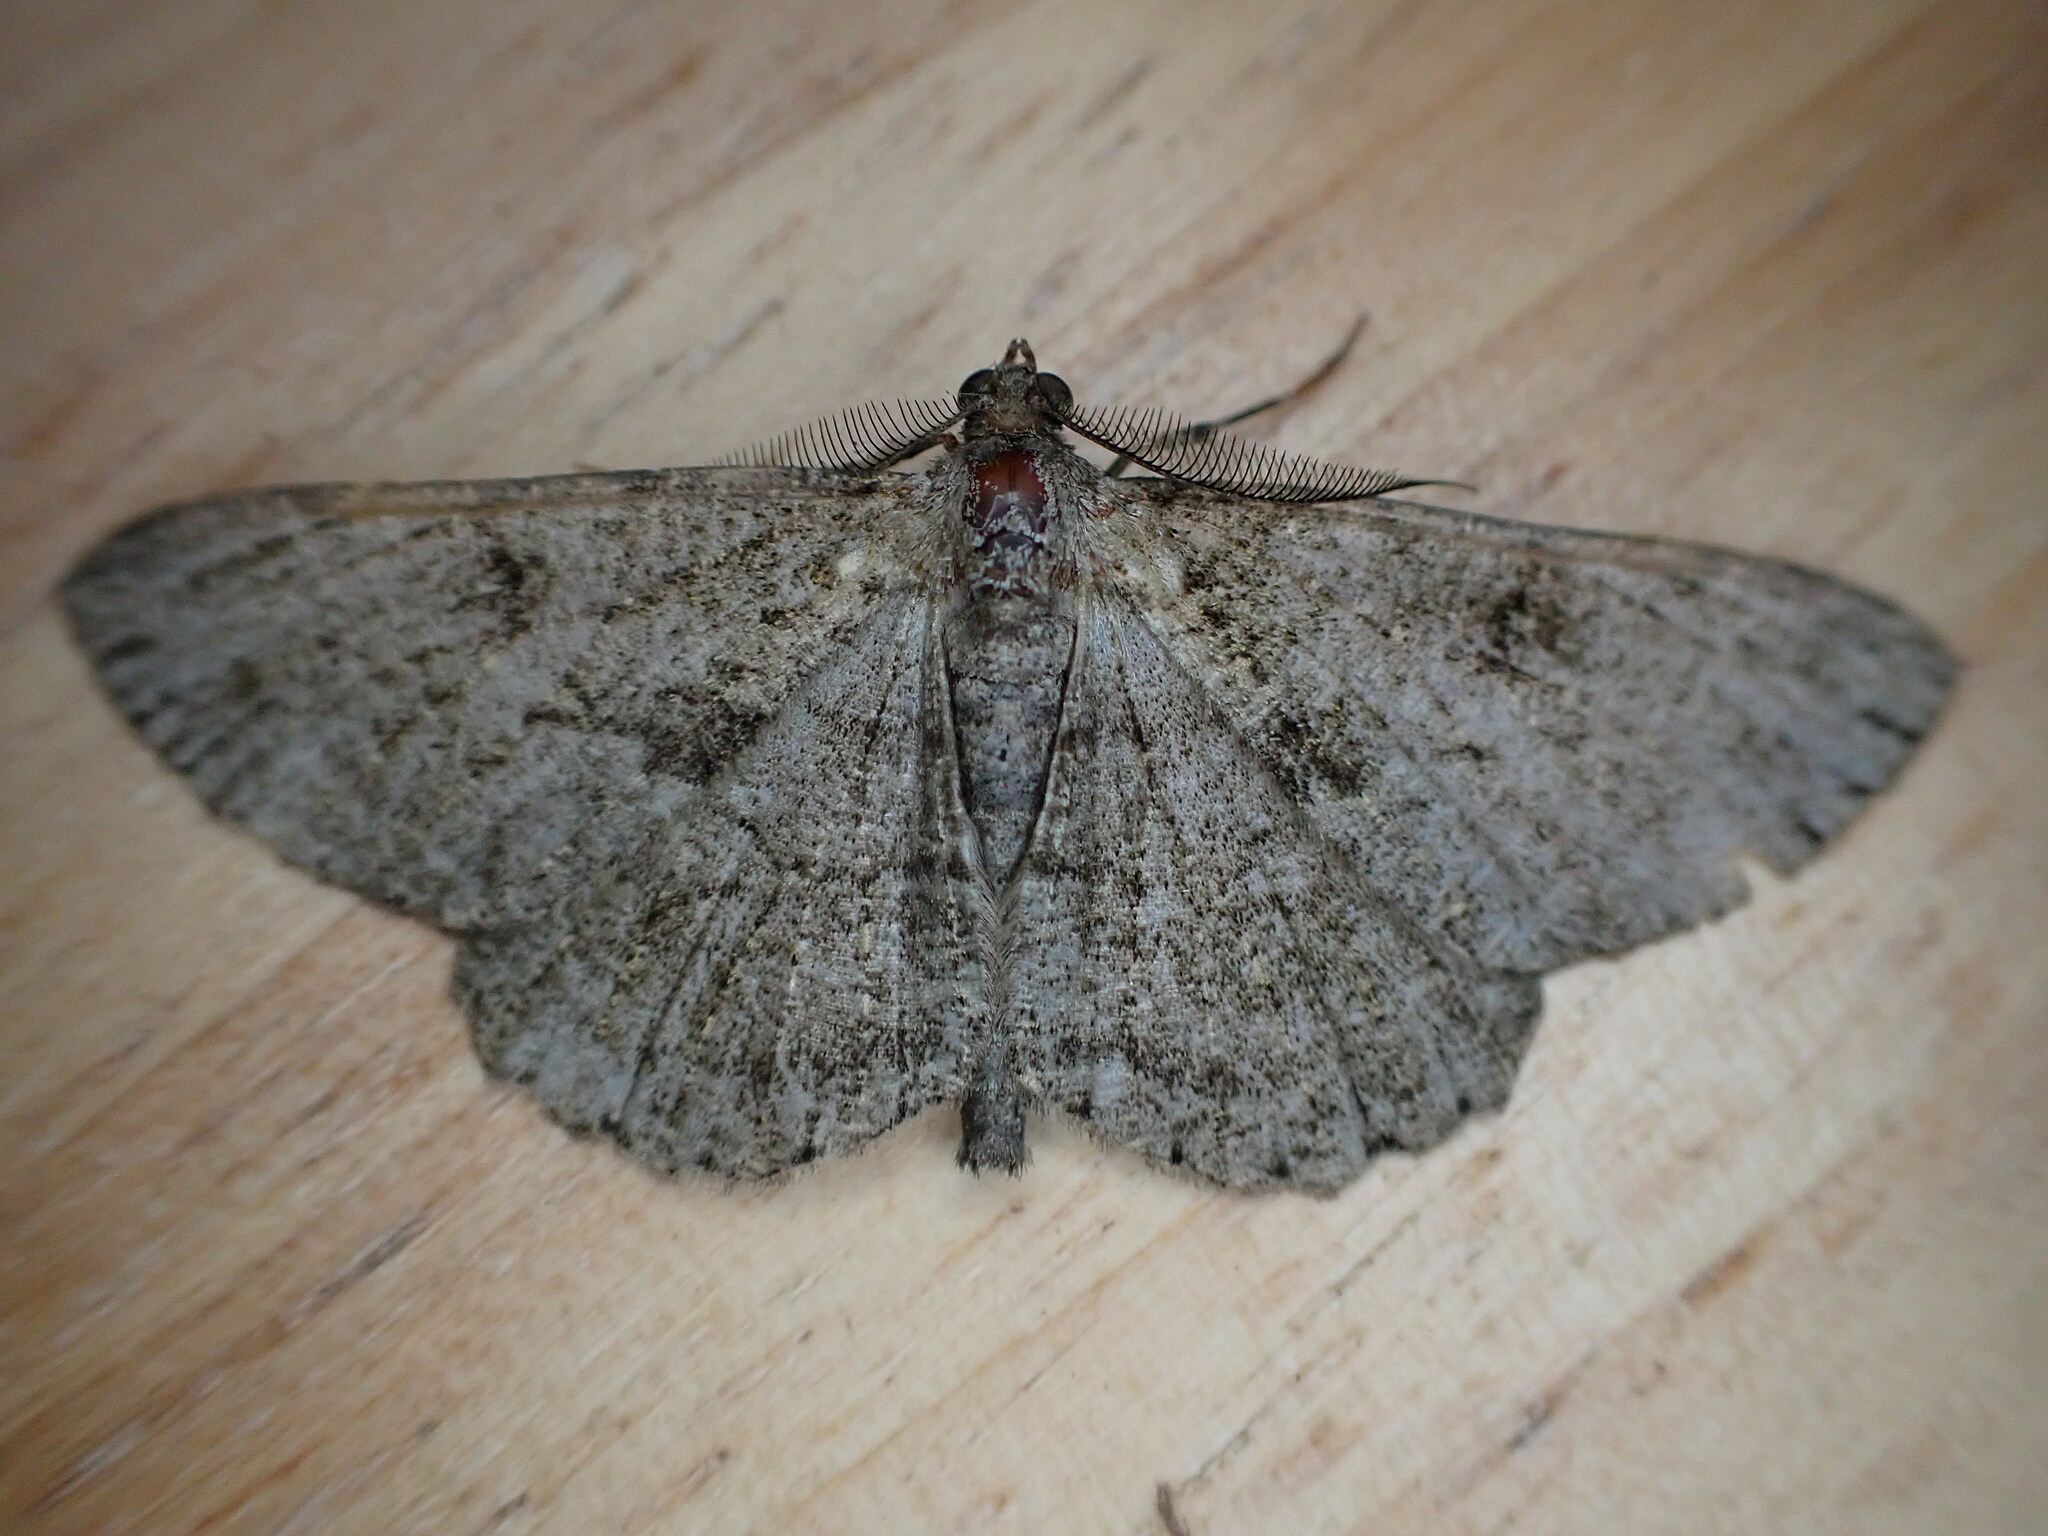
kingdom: Animalia
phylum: Arthropoda
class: Insecta
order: Lepidoptera
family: Geometridae
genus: Peribatodes
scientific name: Peribatodes rhomboidaria
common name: Willow beauty
